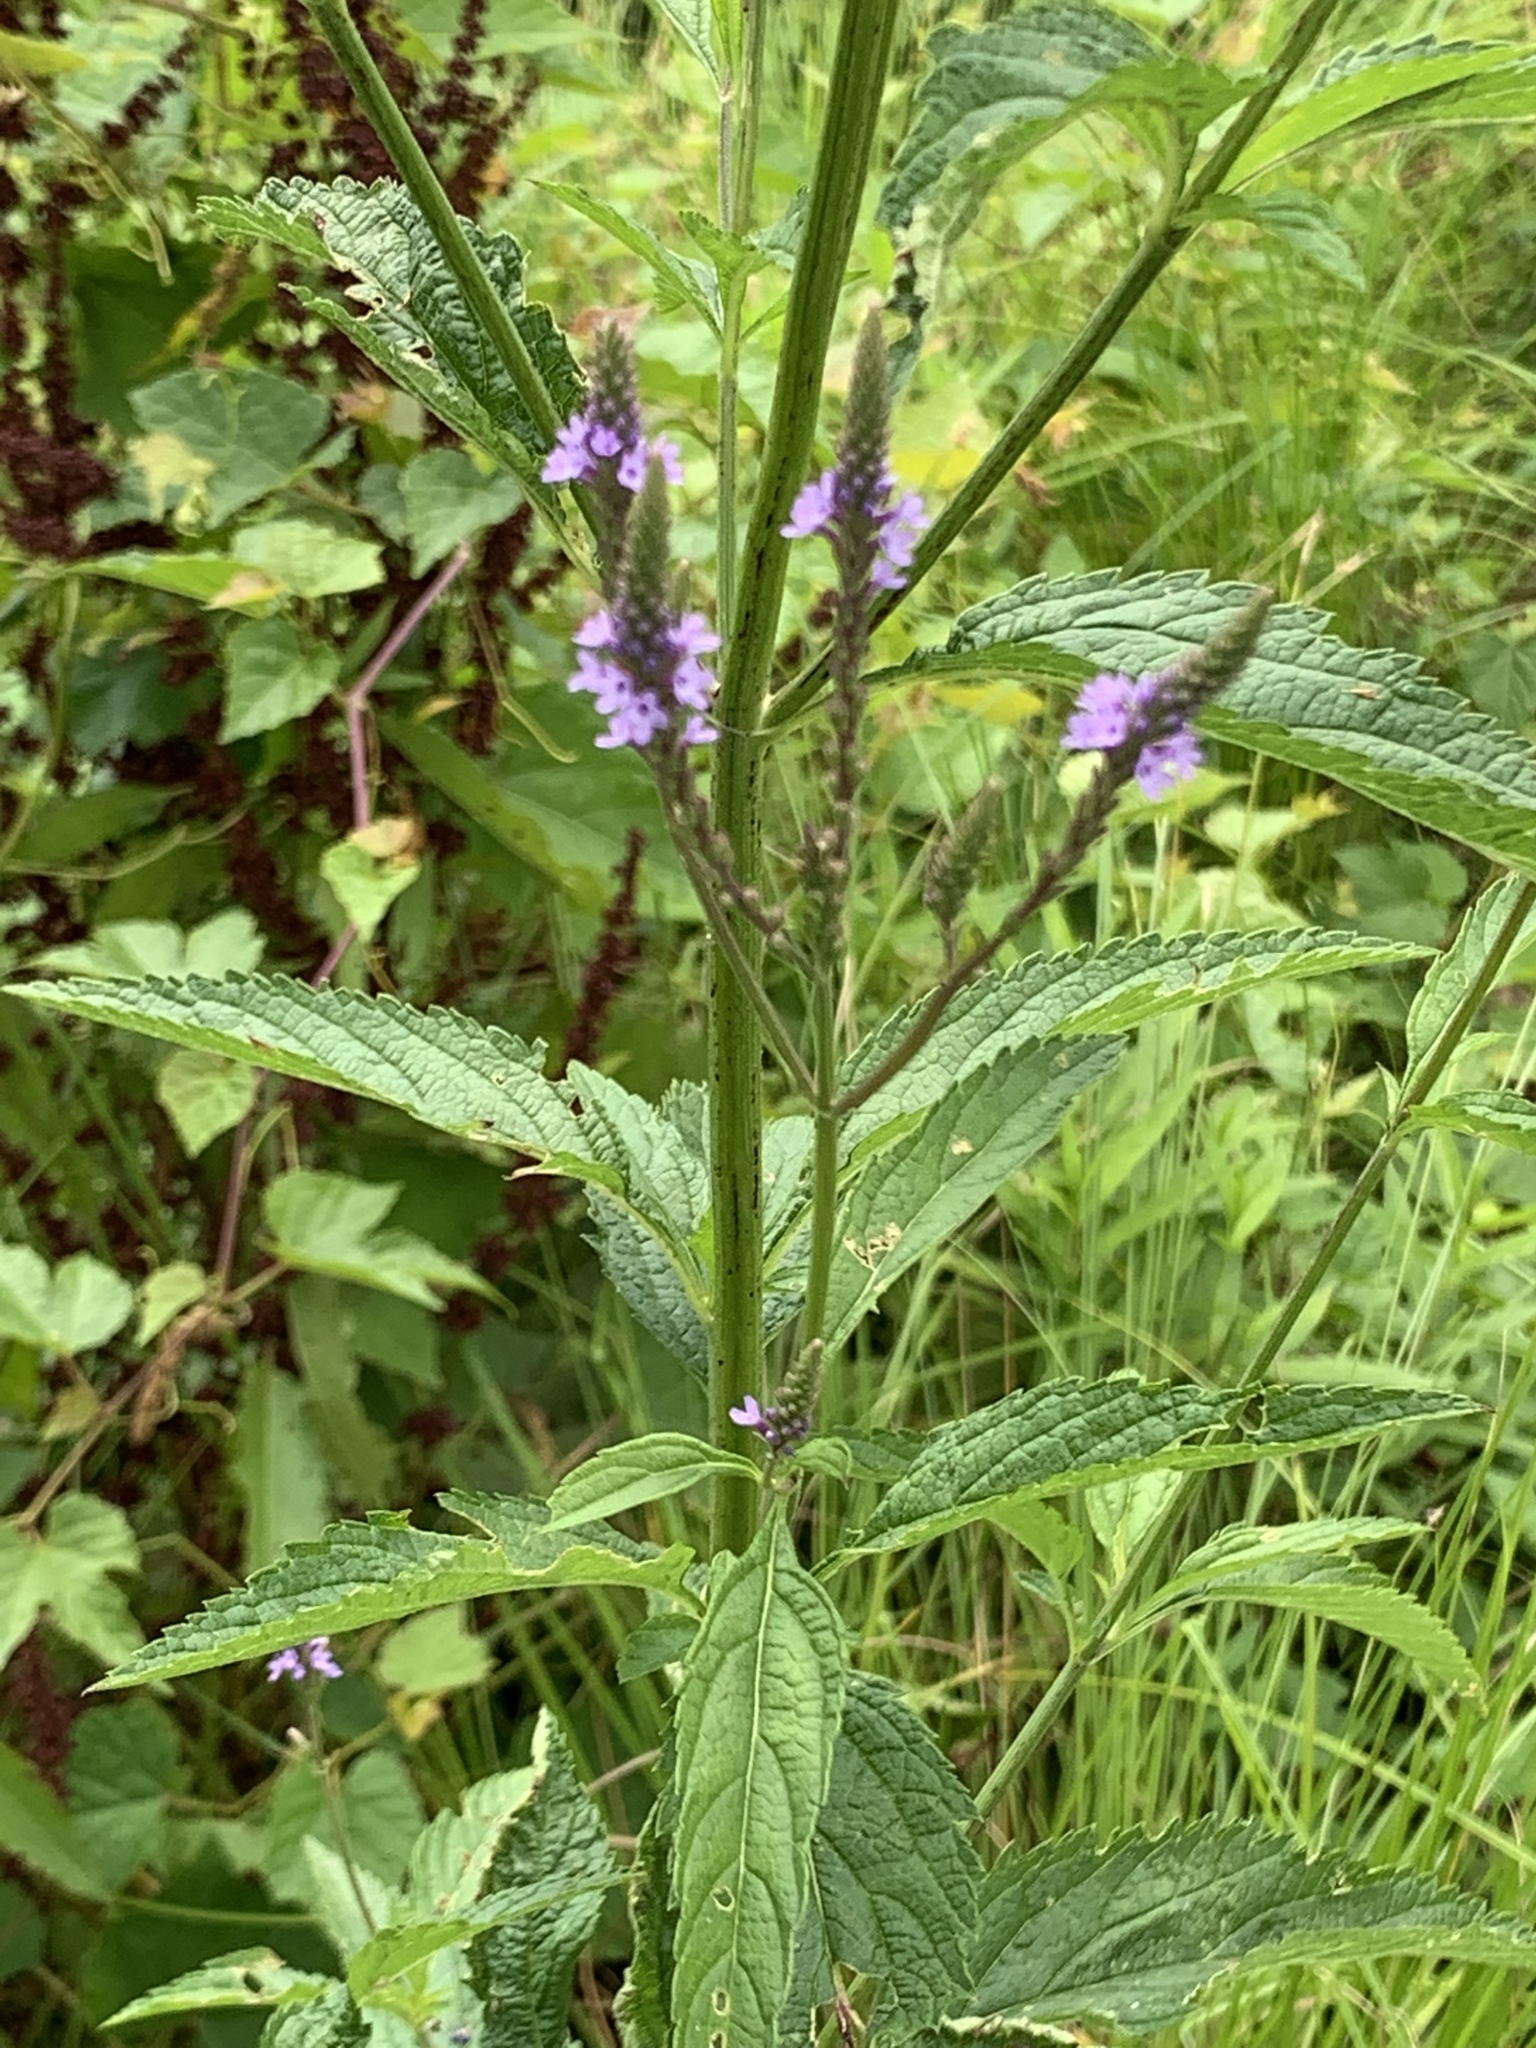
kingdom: Plantae
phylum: Tracheophyta
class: Magnoliopsida
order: Lamiales
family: Verbenaceae
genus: Verbena
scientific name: Verbena hastata
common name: American blue vervain
